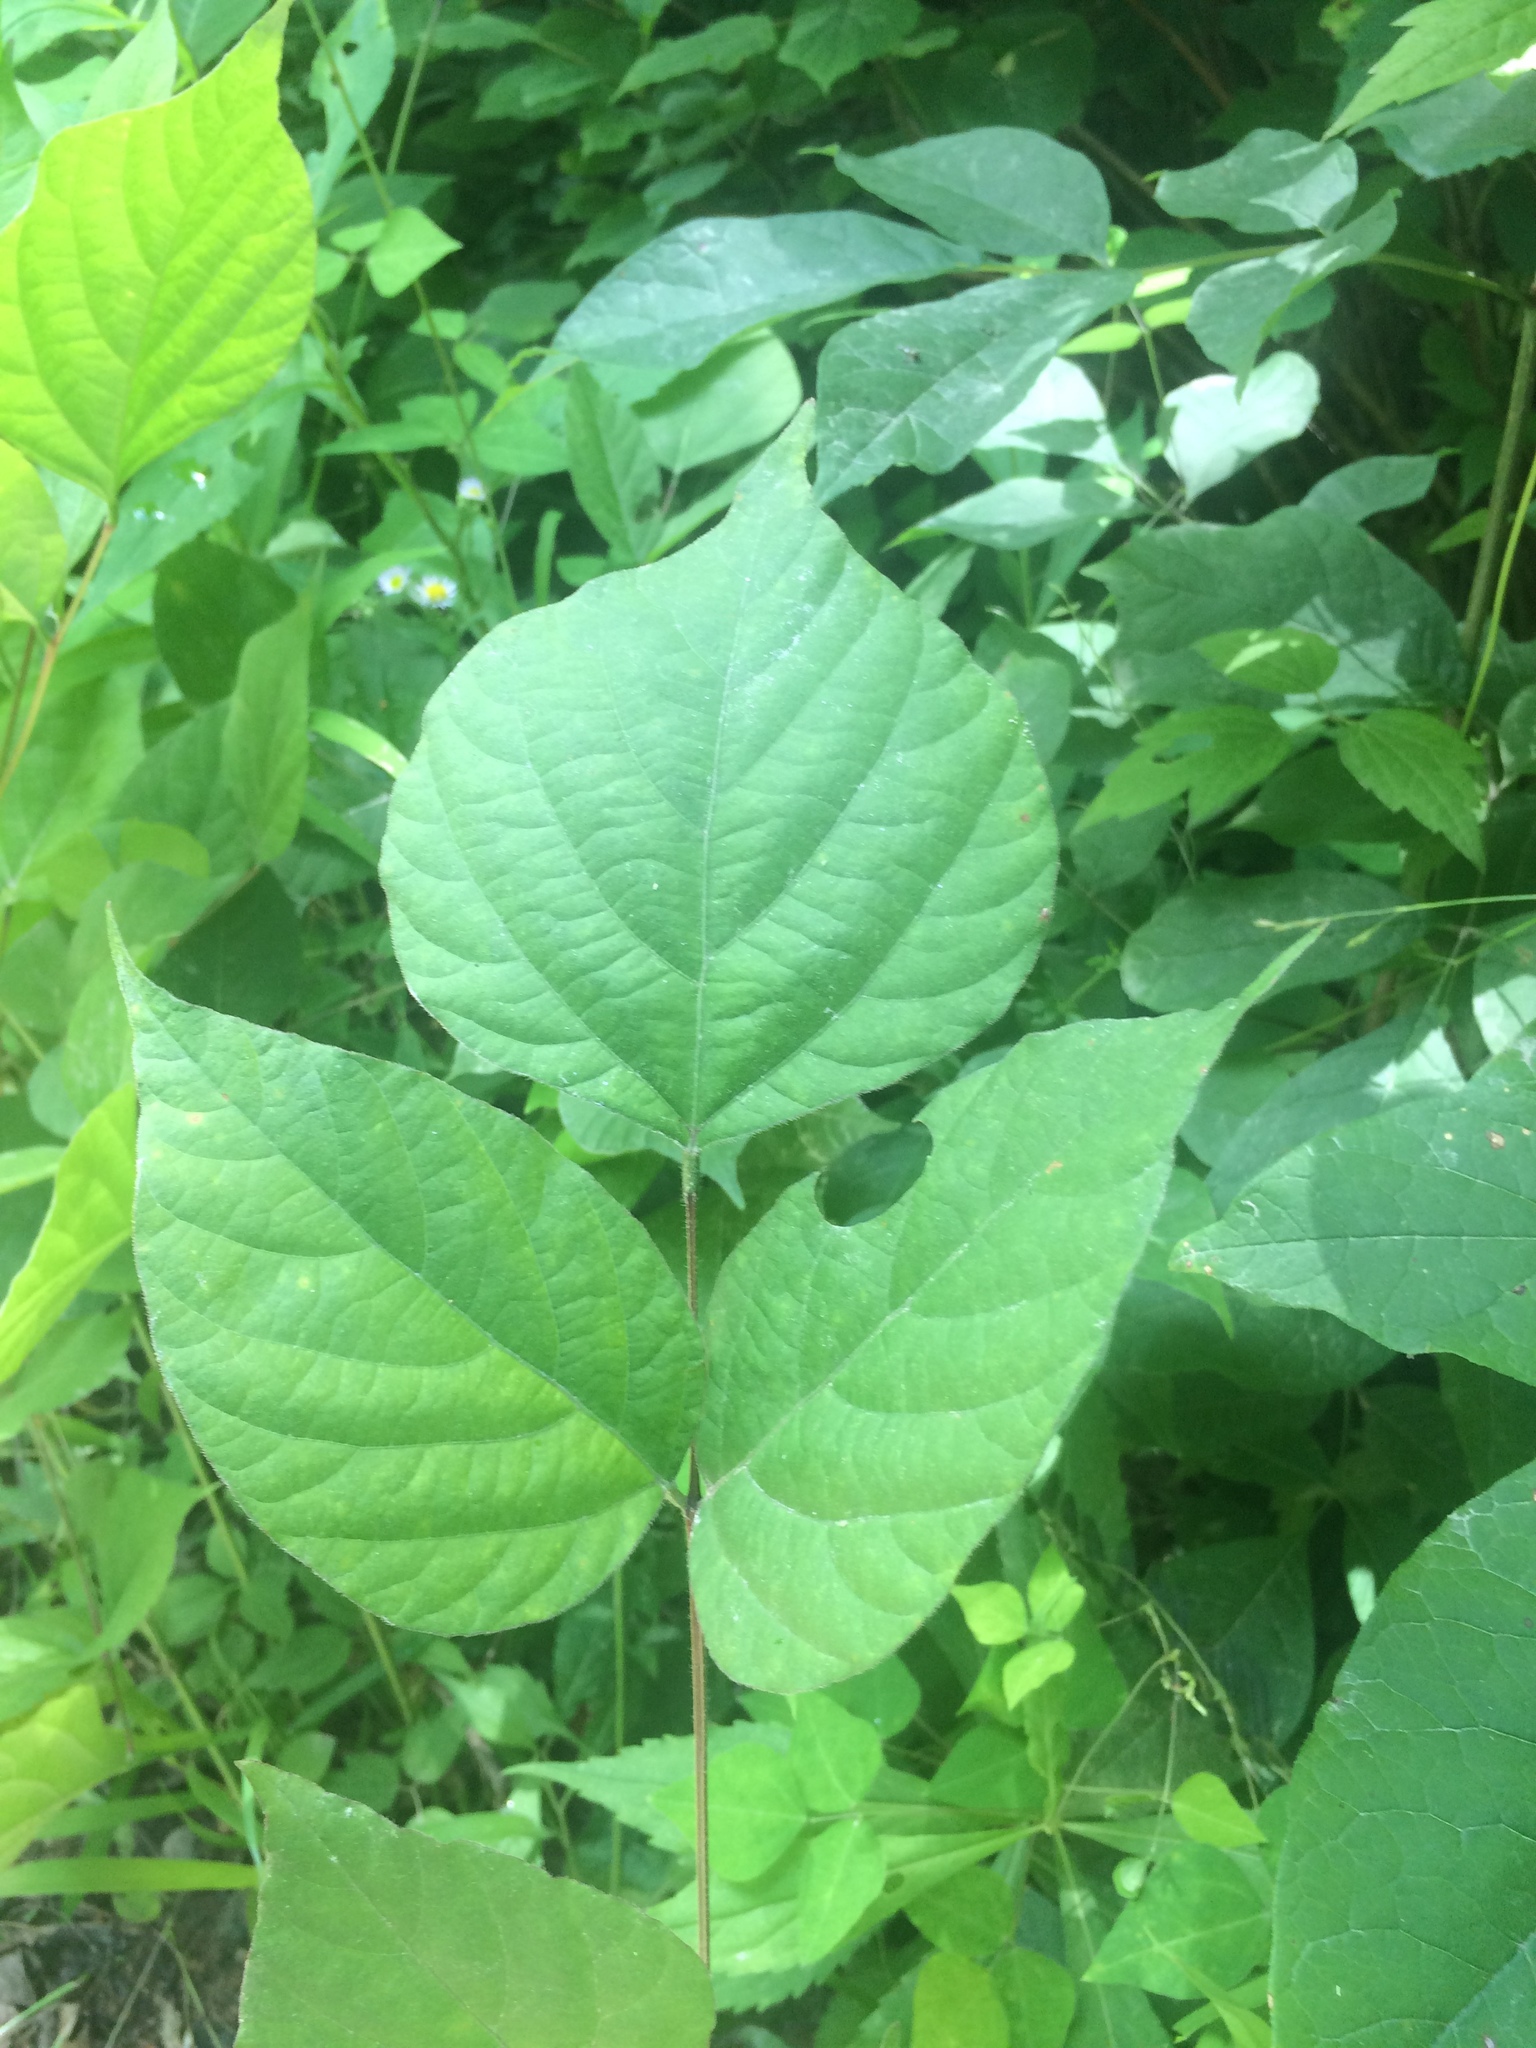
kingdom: Plantae
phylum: Tracheophyta
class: Magnoliopsida
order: Fabales
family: Fabaceae
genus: Hylodesmum
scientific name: Hylodesmum glutinosum
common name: Clustered-leaved tick-trefoil
